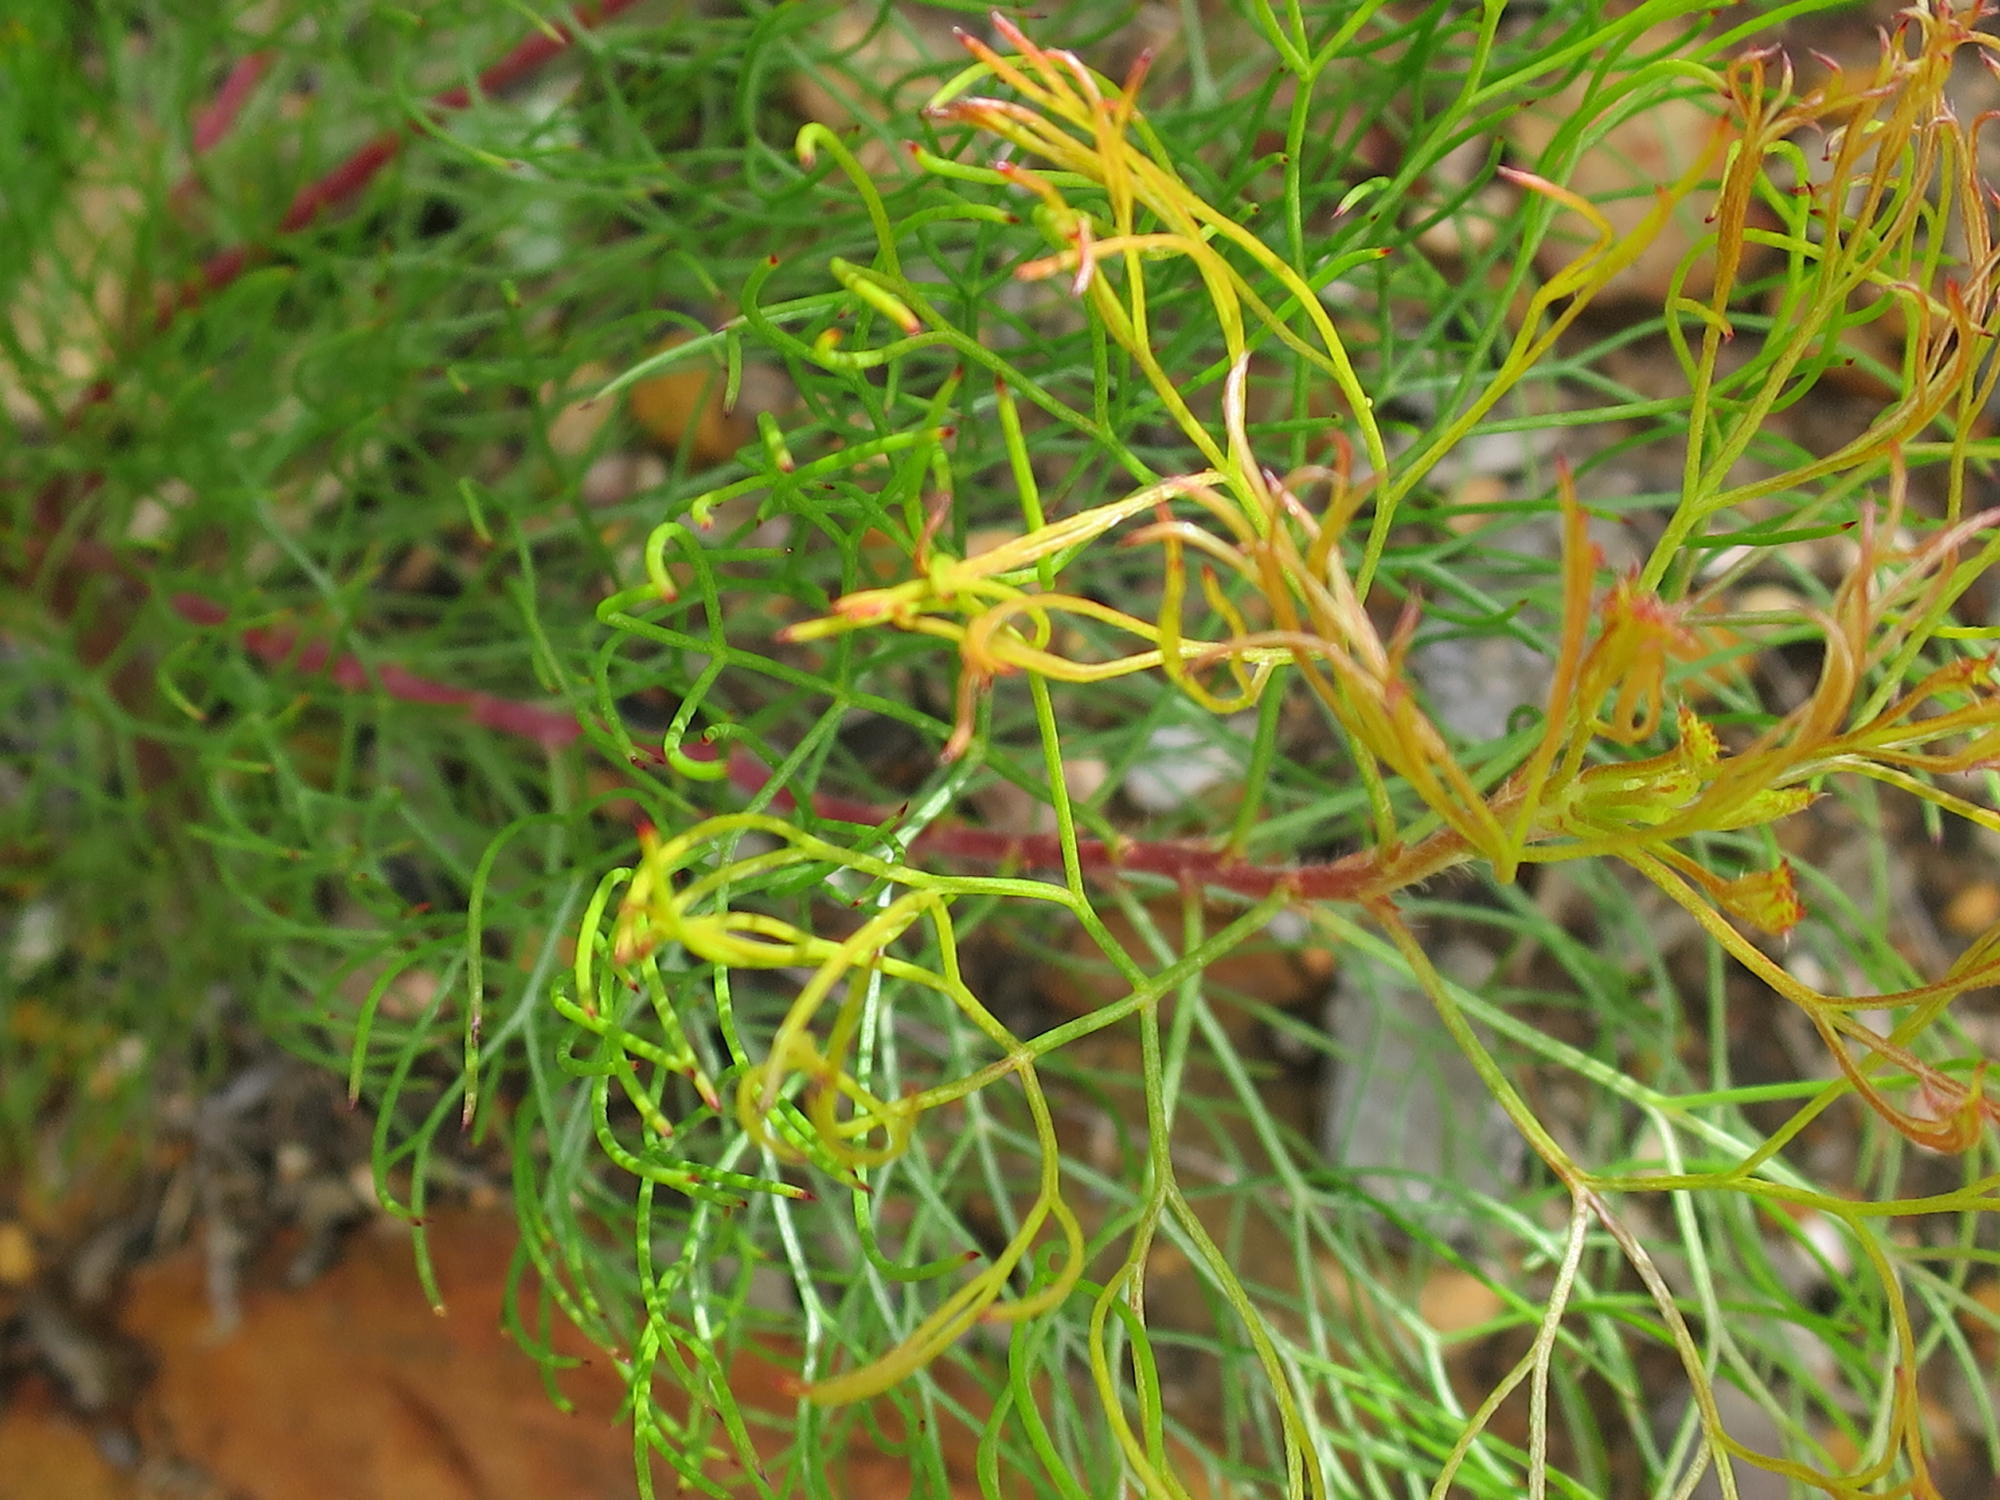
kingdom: Plantae
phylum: Tracheophyta
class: Magnoliopsida
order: Proteales
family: Proteaceae
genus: Serruria
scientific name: Serruria fasciflora
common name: Common pin spiderhead
